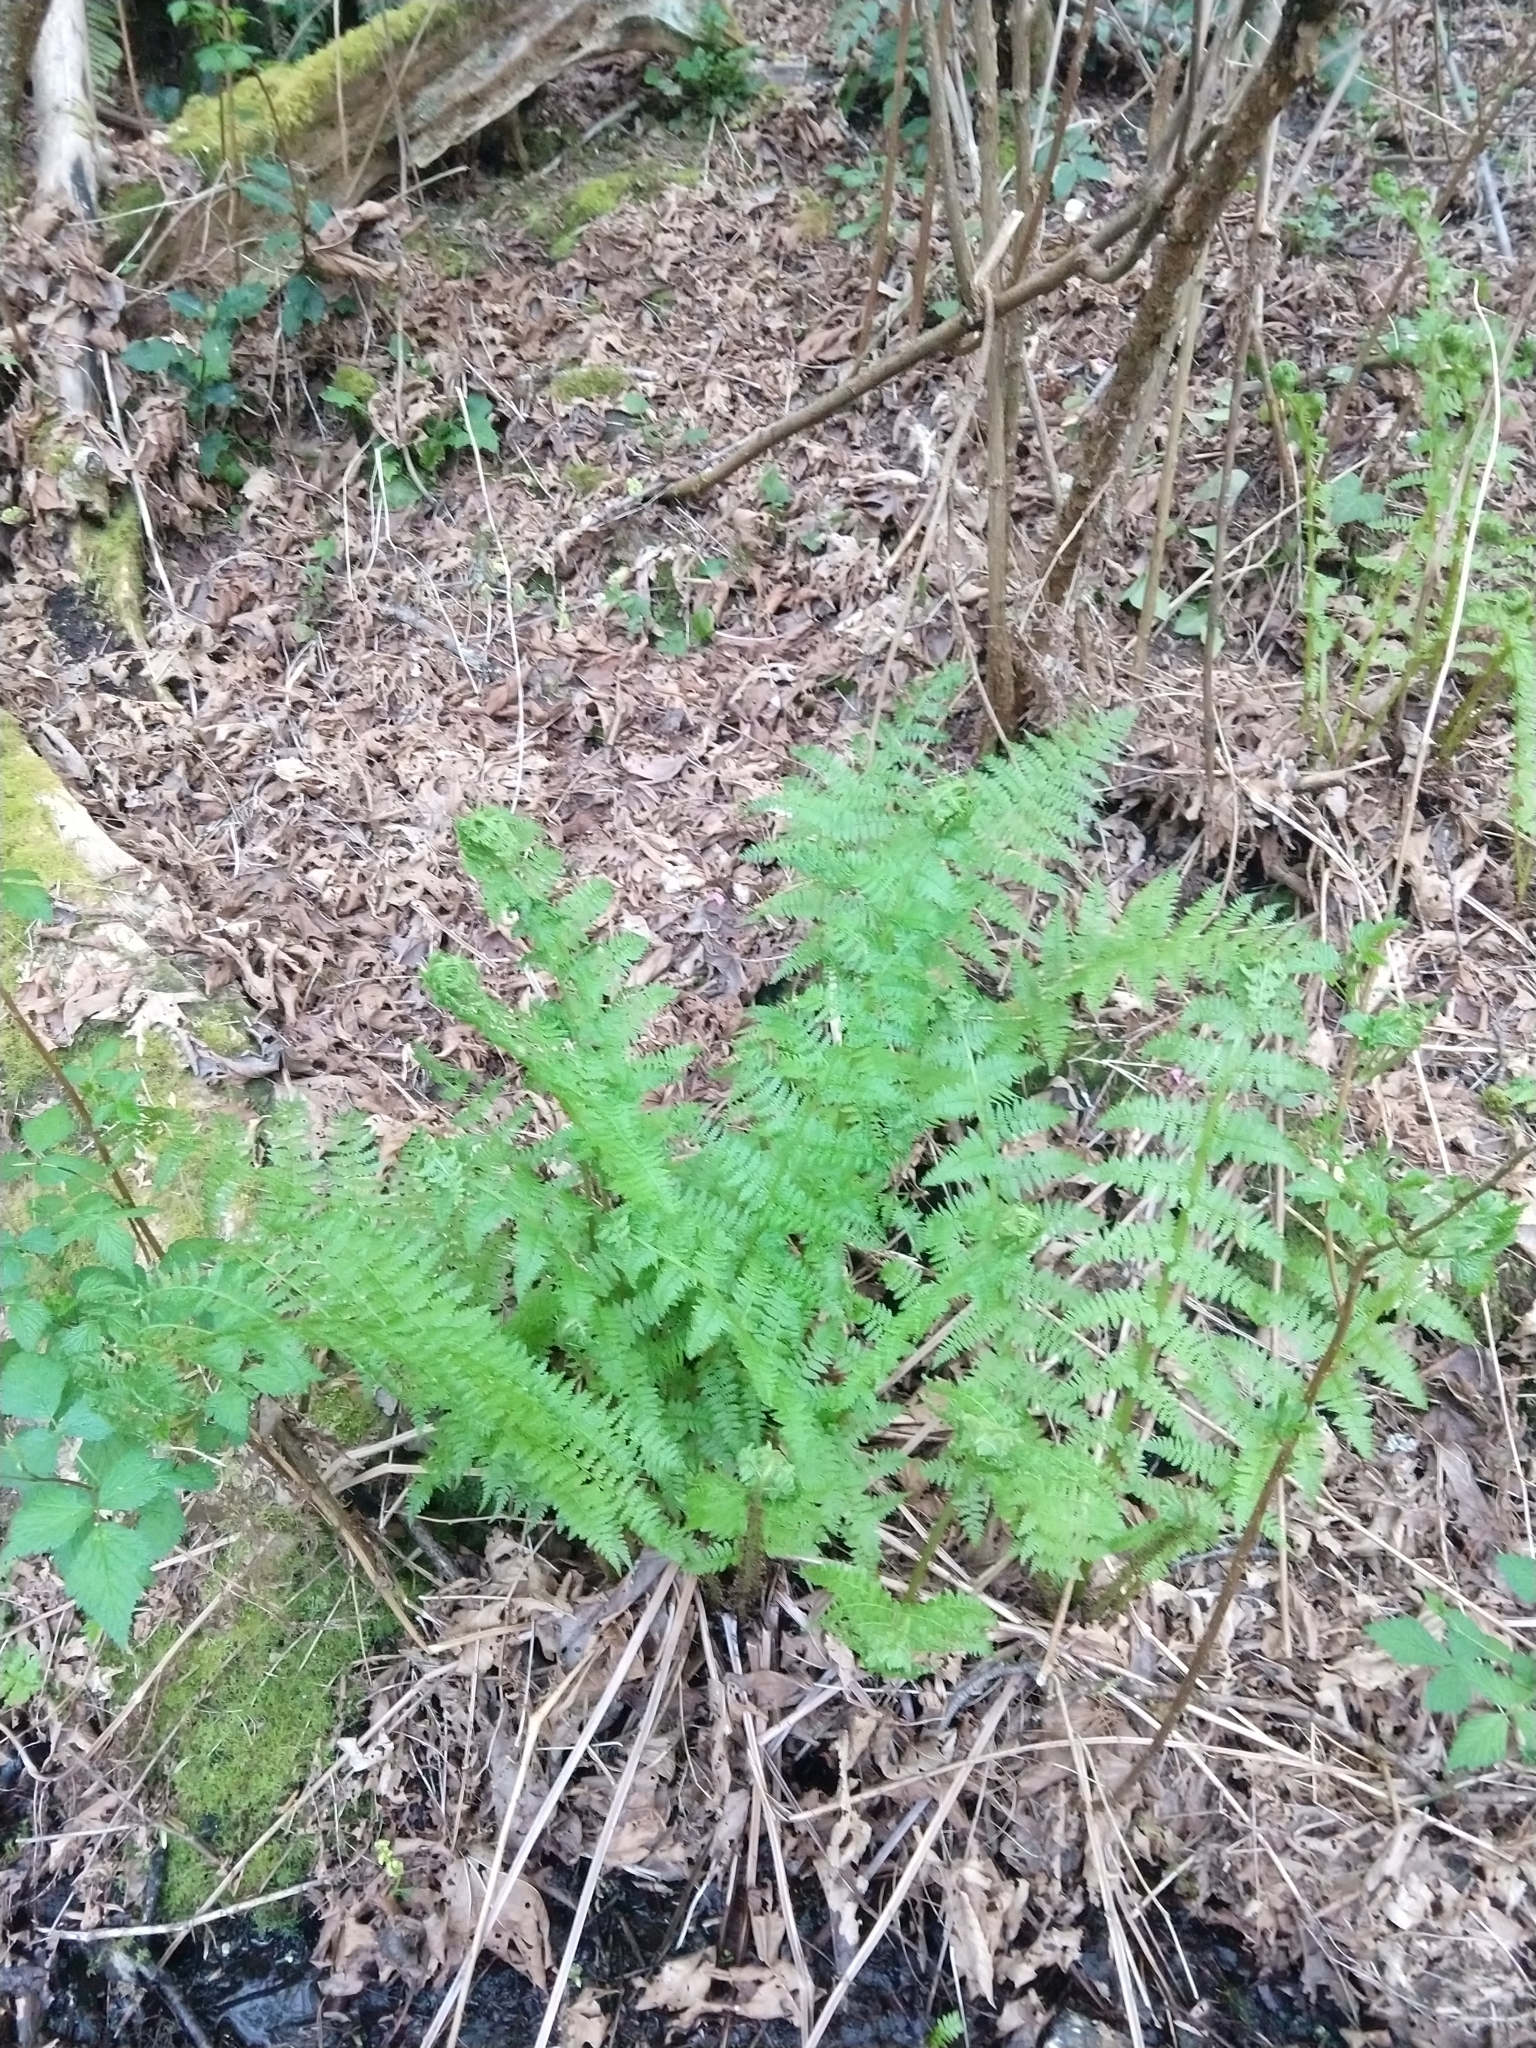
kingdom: Plantae
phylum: Tracheophyta
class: Polypodiopsida
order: Polypodiales
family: Athyriaceae
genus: Athyrium
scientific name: Athyrium filix-femina
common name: Lady fern
